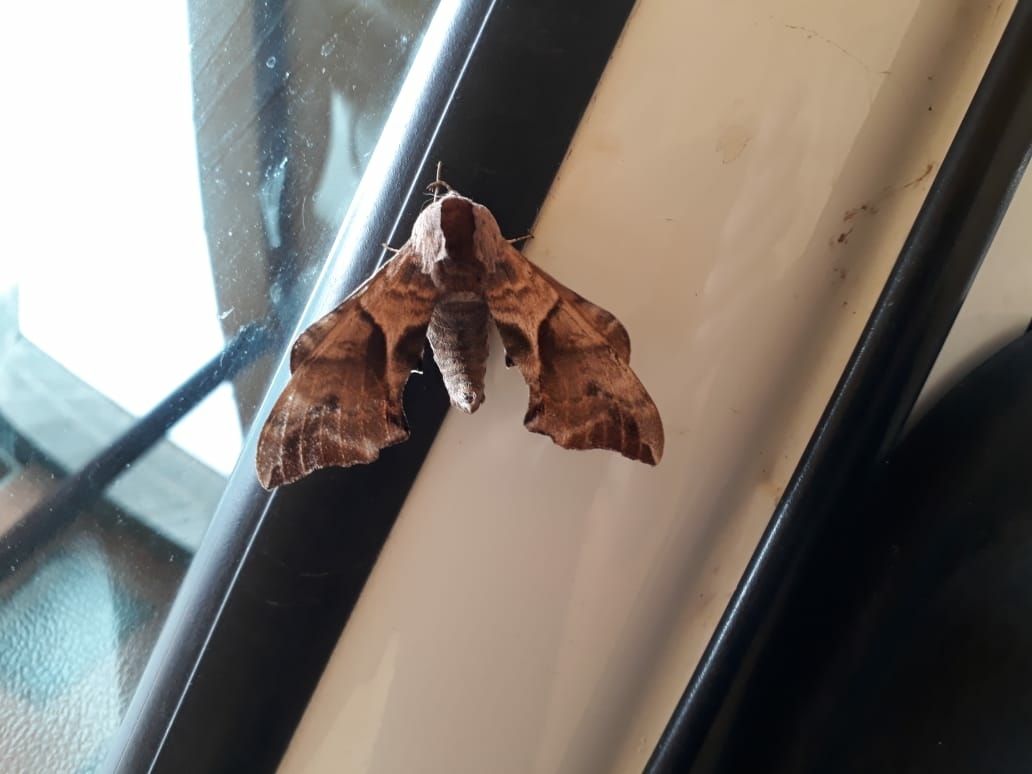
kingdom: Animalia
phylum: Arthropoda
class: Insecta
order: Lepidoptera
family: Sphingidae
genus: Smerinthus
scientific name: Smerinthus ocellata
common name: Eyed hawk-moth
